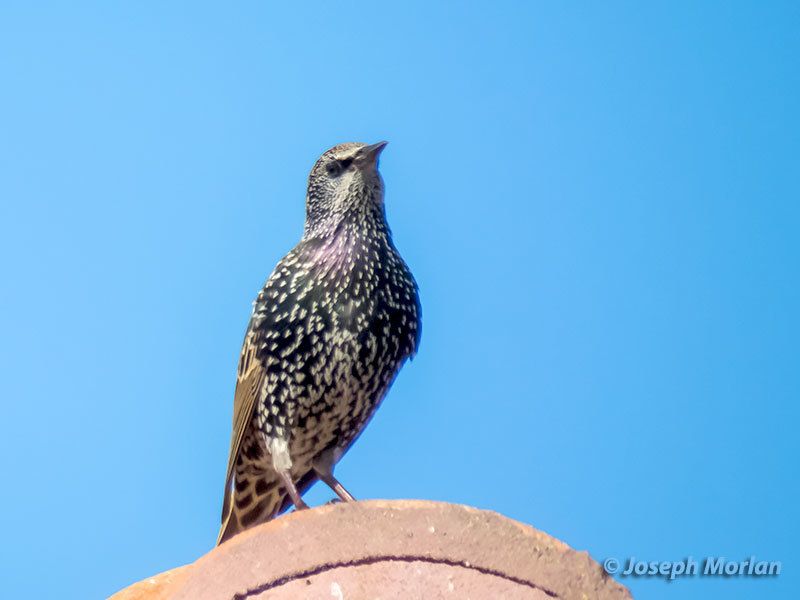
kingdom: Animalia
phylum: Chordata
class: Aves
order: Passeriformes
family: Sturnidae
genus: Sturnus
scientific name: Sturnus vulgaris
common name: Common starling
